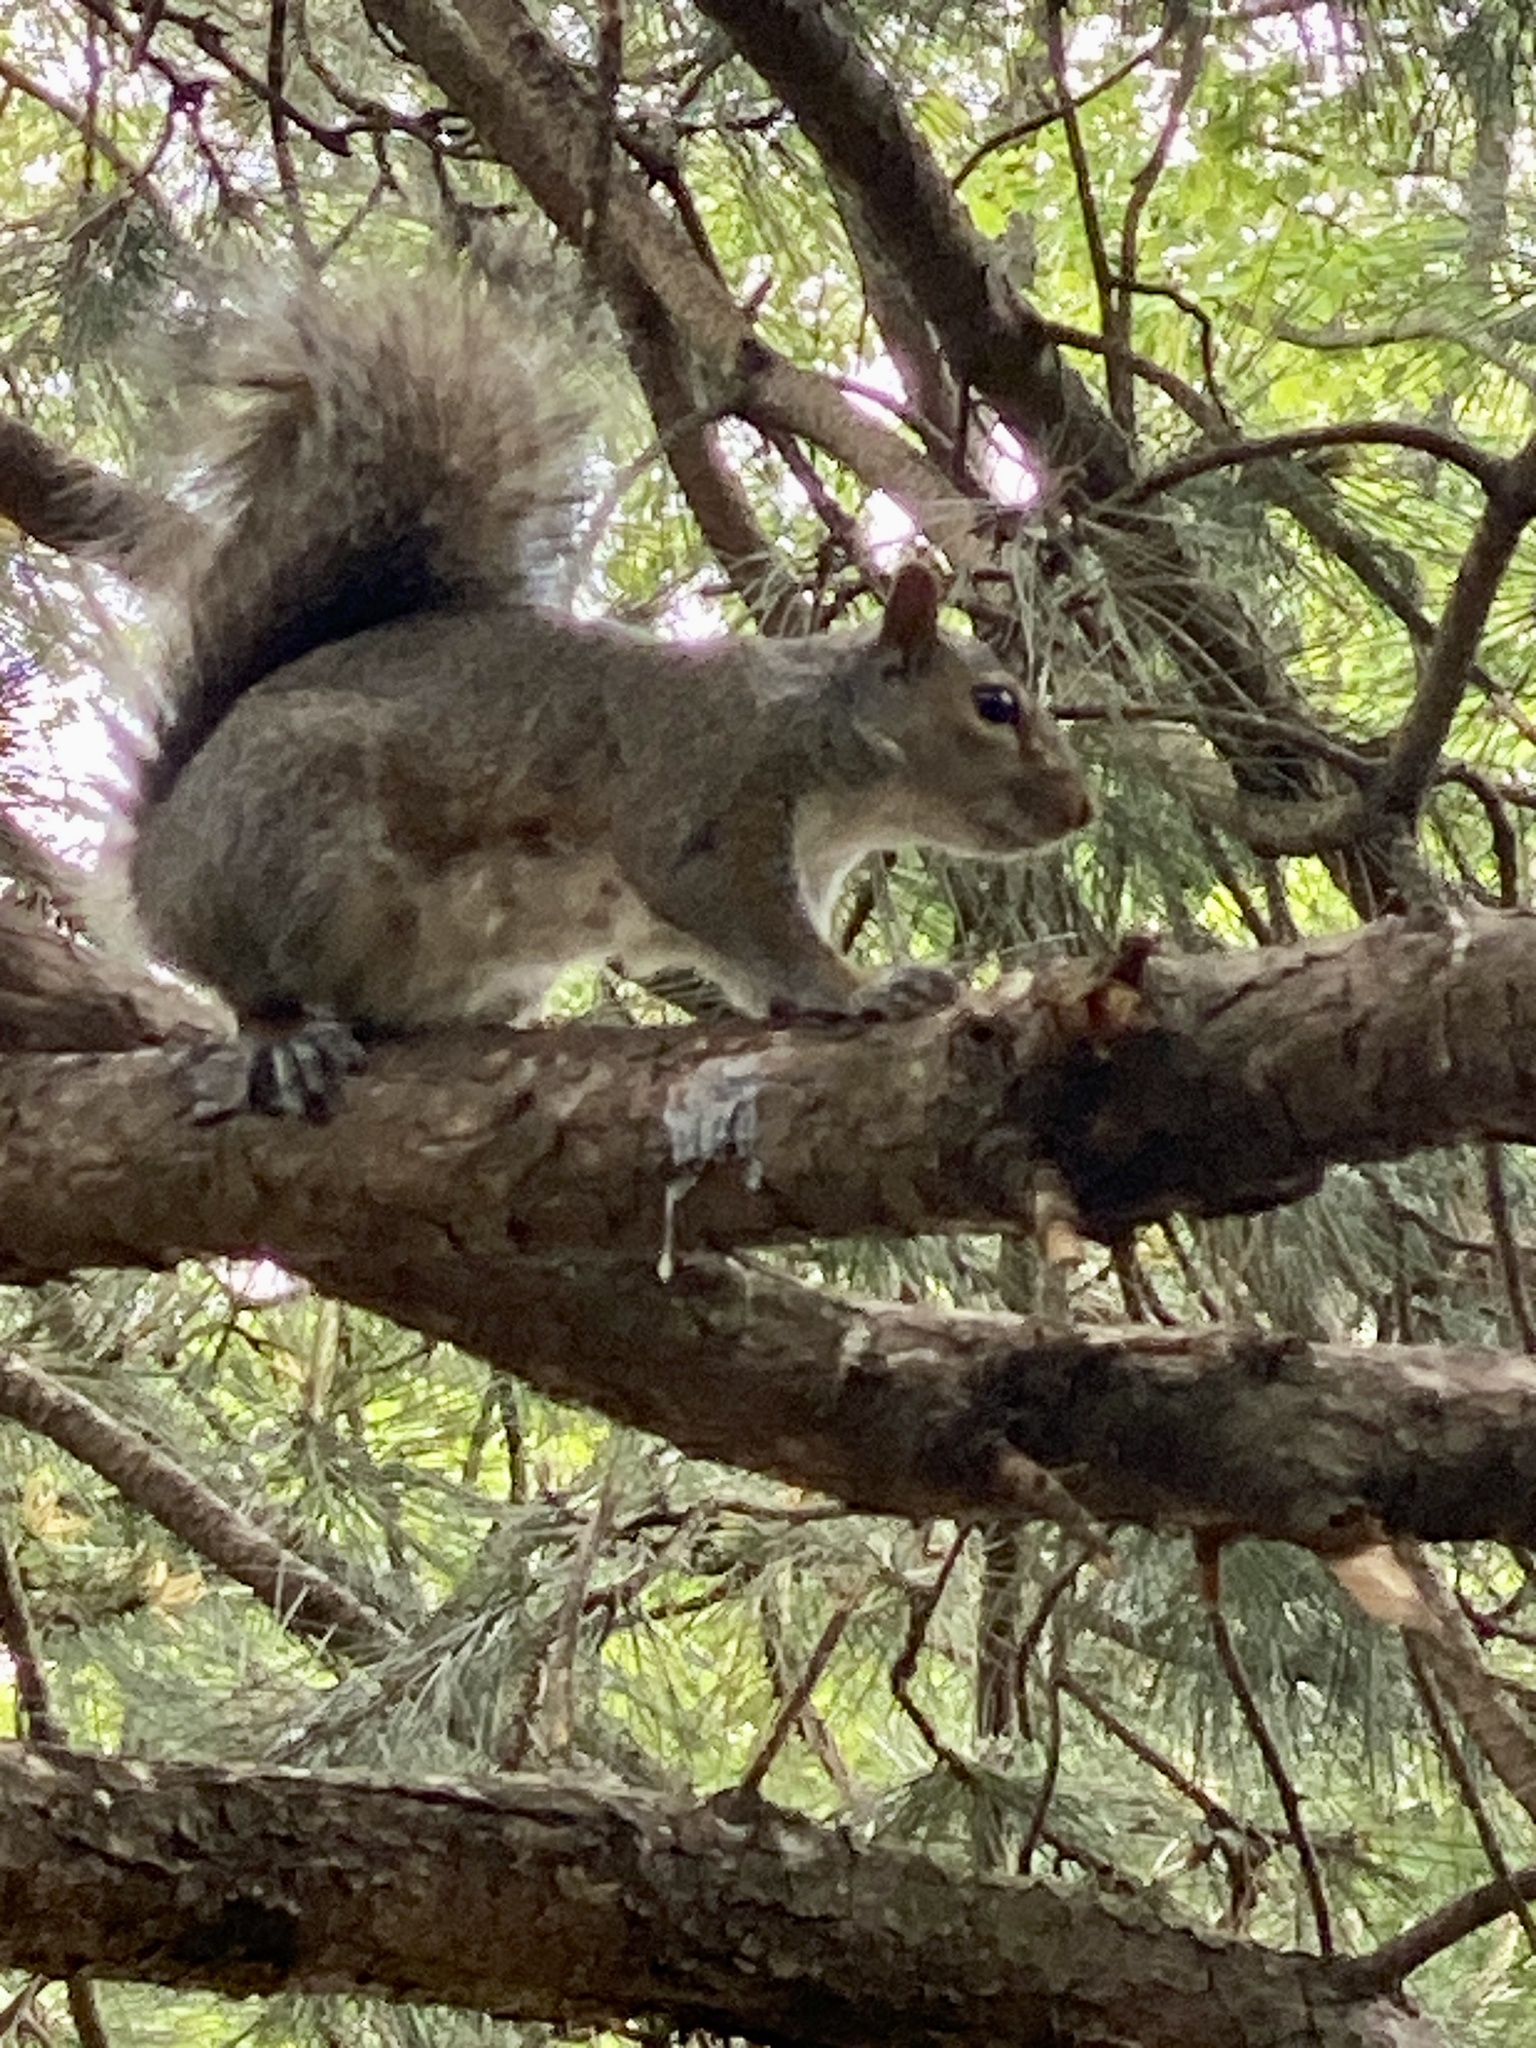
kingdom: Animalia
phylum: Chordata
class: Mammalia
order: Rodentia
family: Sciuridae
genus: Sciurus
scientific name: Sciurus carolinensis
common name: Eastern gray squirrel
